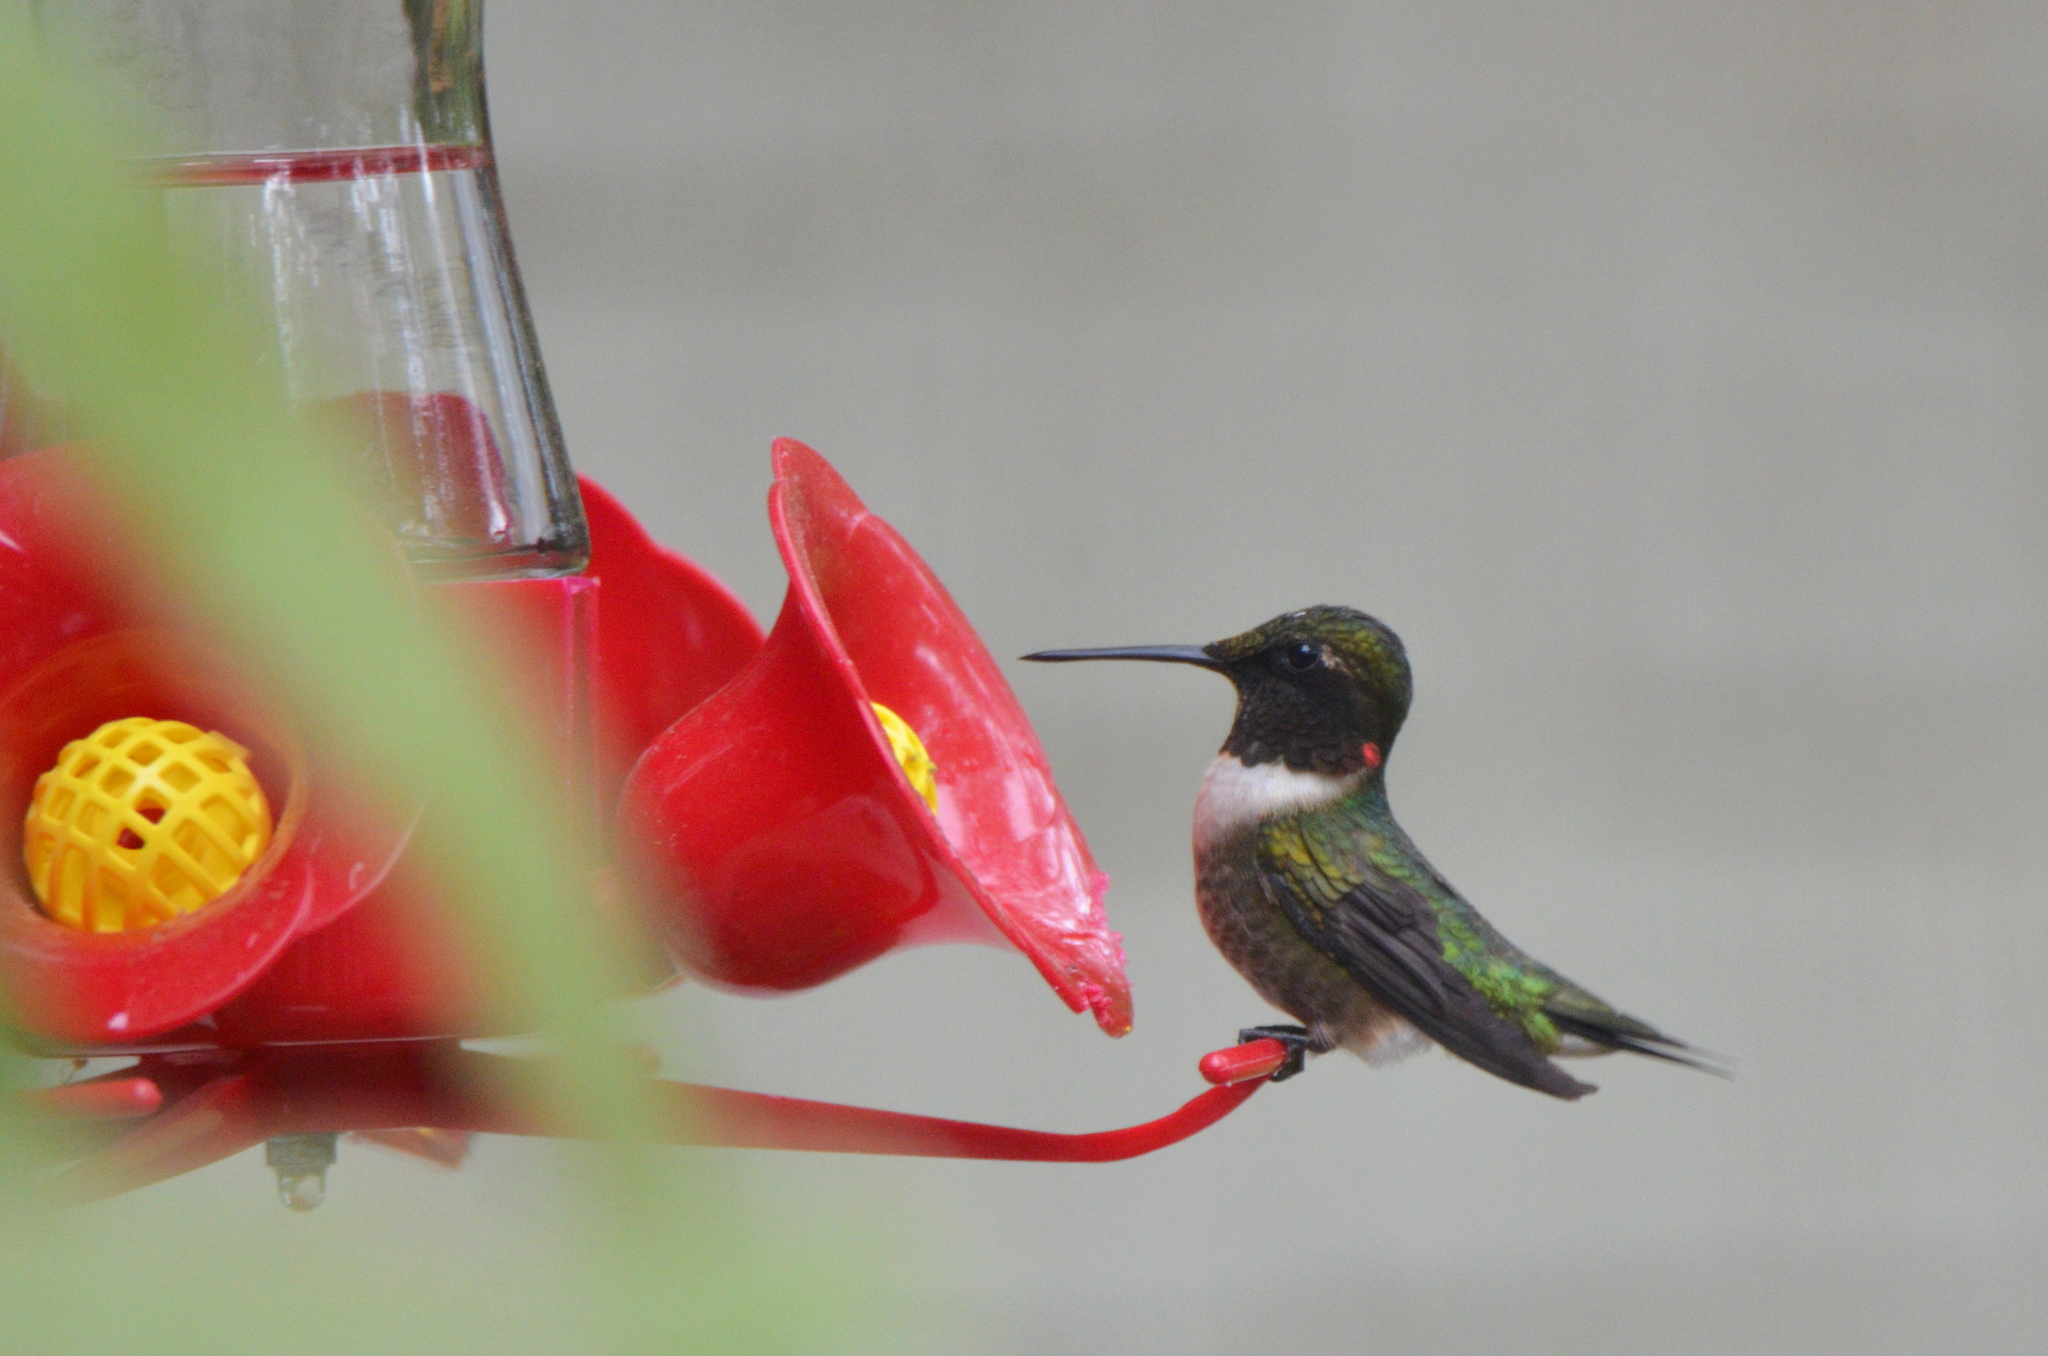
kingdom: Animalia
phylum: Chordata
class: Aves
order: Apodiformes
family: Trochilidae
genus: Archilochus
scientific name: Archilochus colubris
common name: Ruby-throated hummingbird
